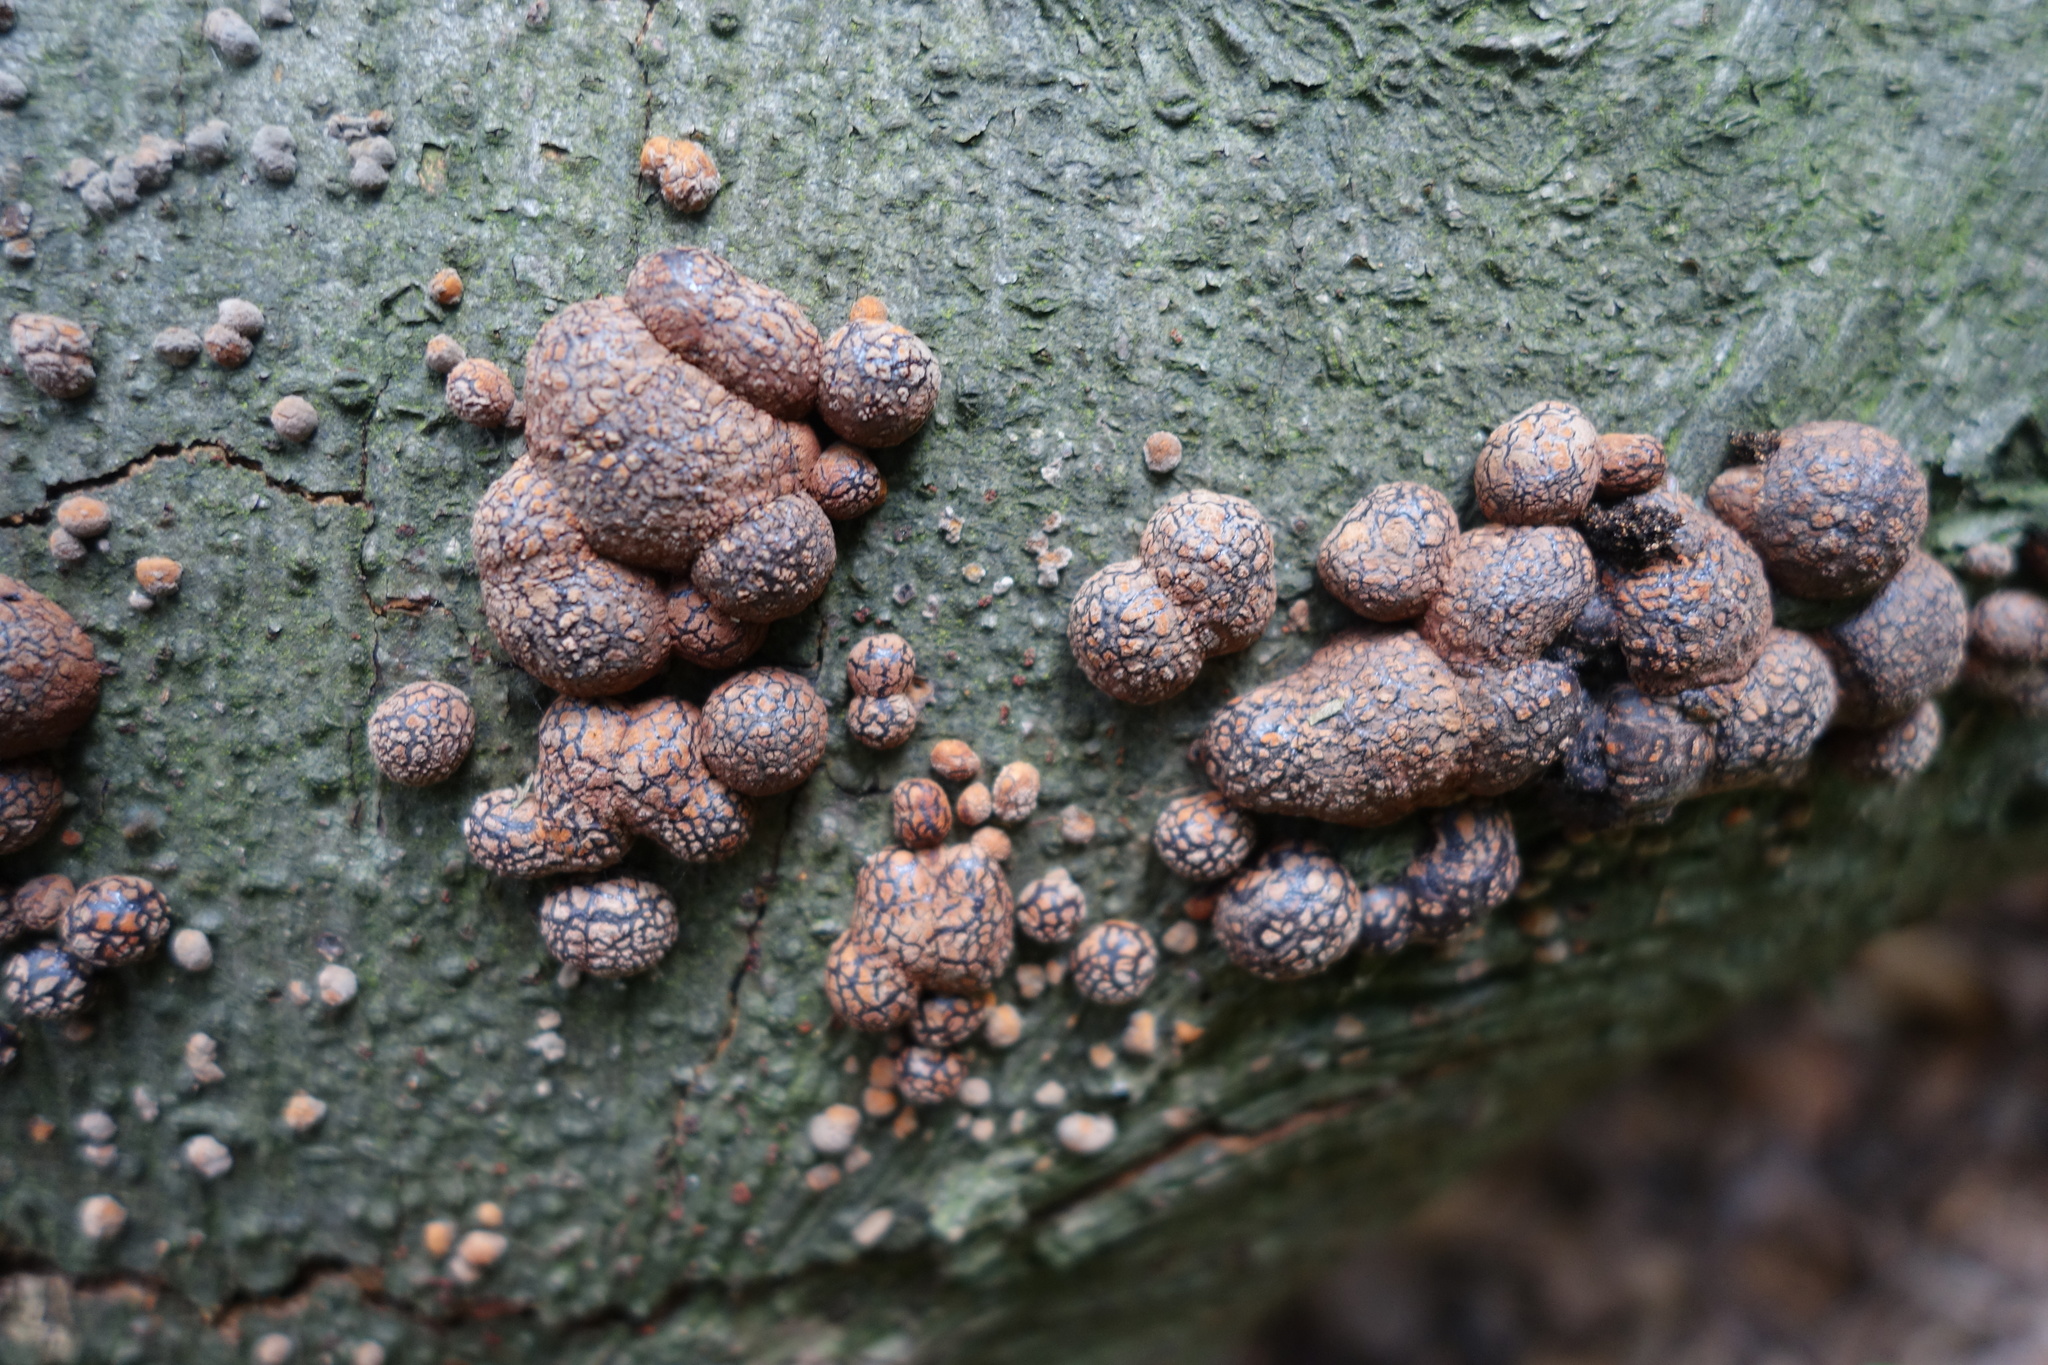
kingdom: Fungi
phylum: Ascomycota
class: Sordariomycetes
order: Xylariales
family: Hypoxylaceae
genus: Hypoxylon
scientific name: Hypoxylon fragiforme
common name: Beech woodwart
